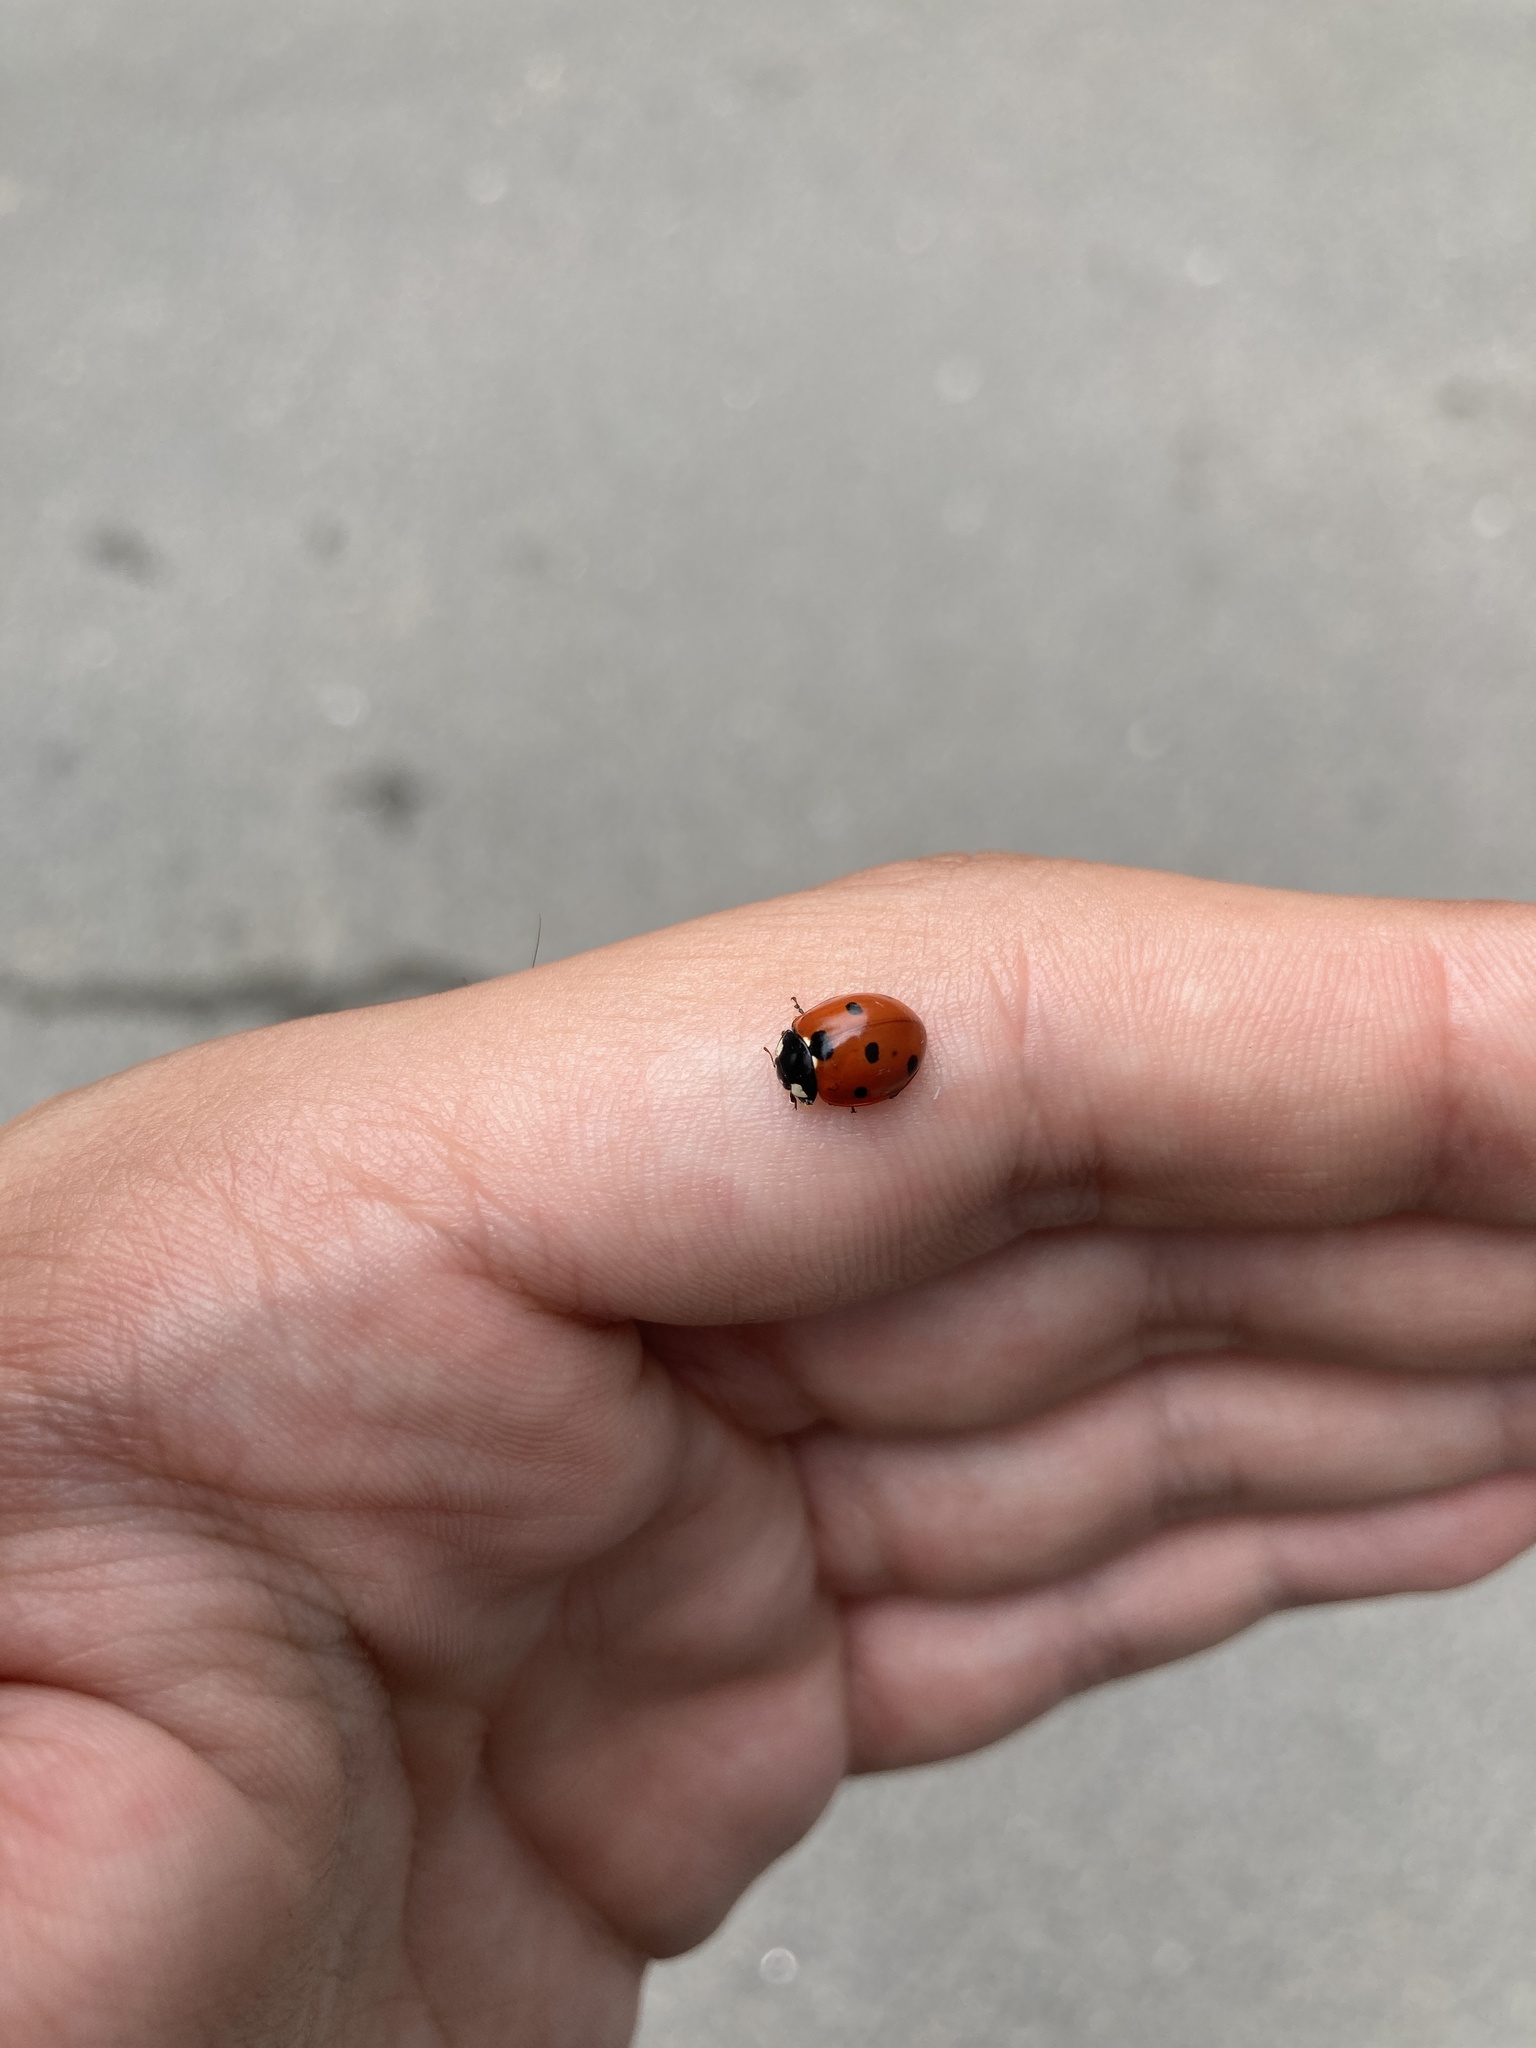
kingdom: Animalia
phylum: Arthropoda
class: Insecta
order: Coleoptera
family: Coccinellidae
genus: Coccinella
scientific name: Coccinella septempunctata
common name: Sevenspotted lady beetle
